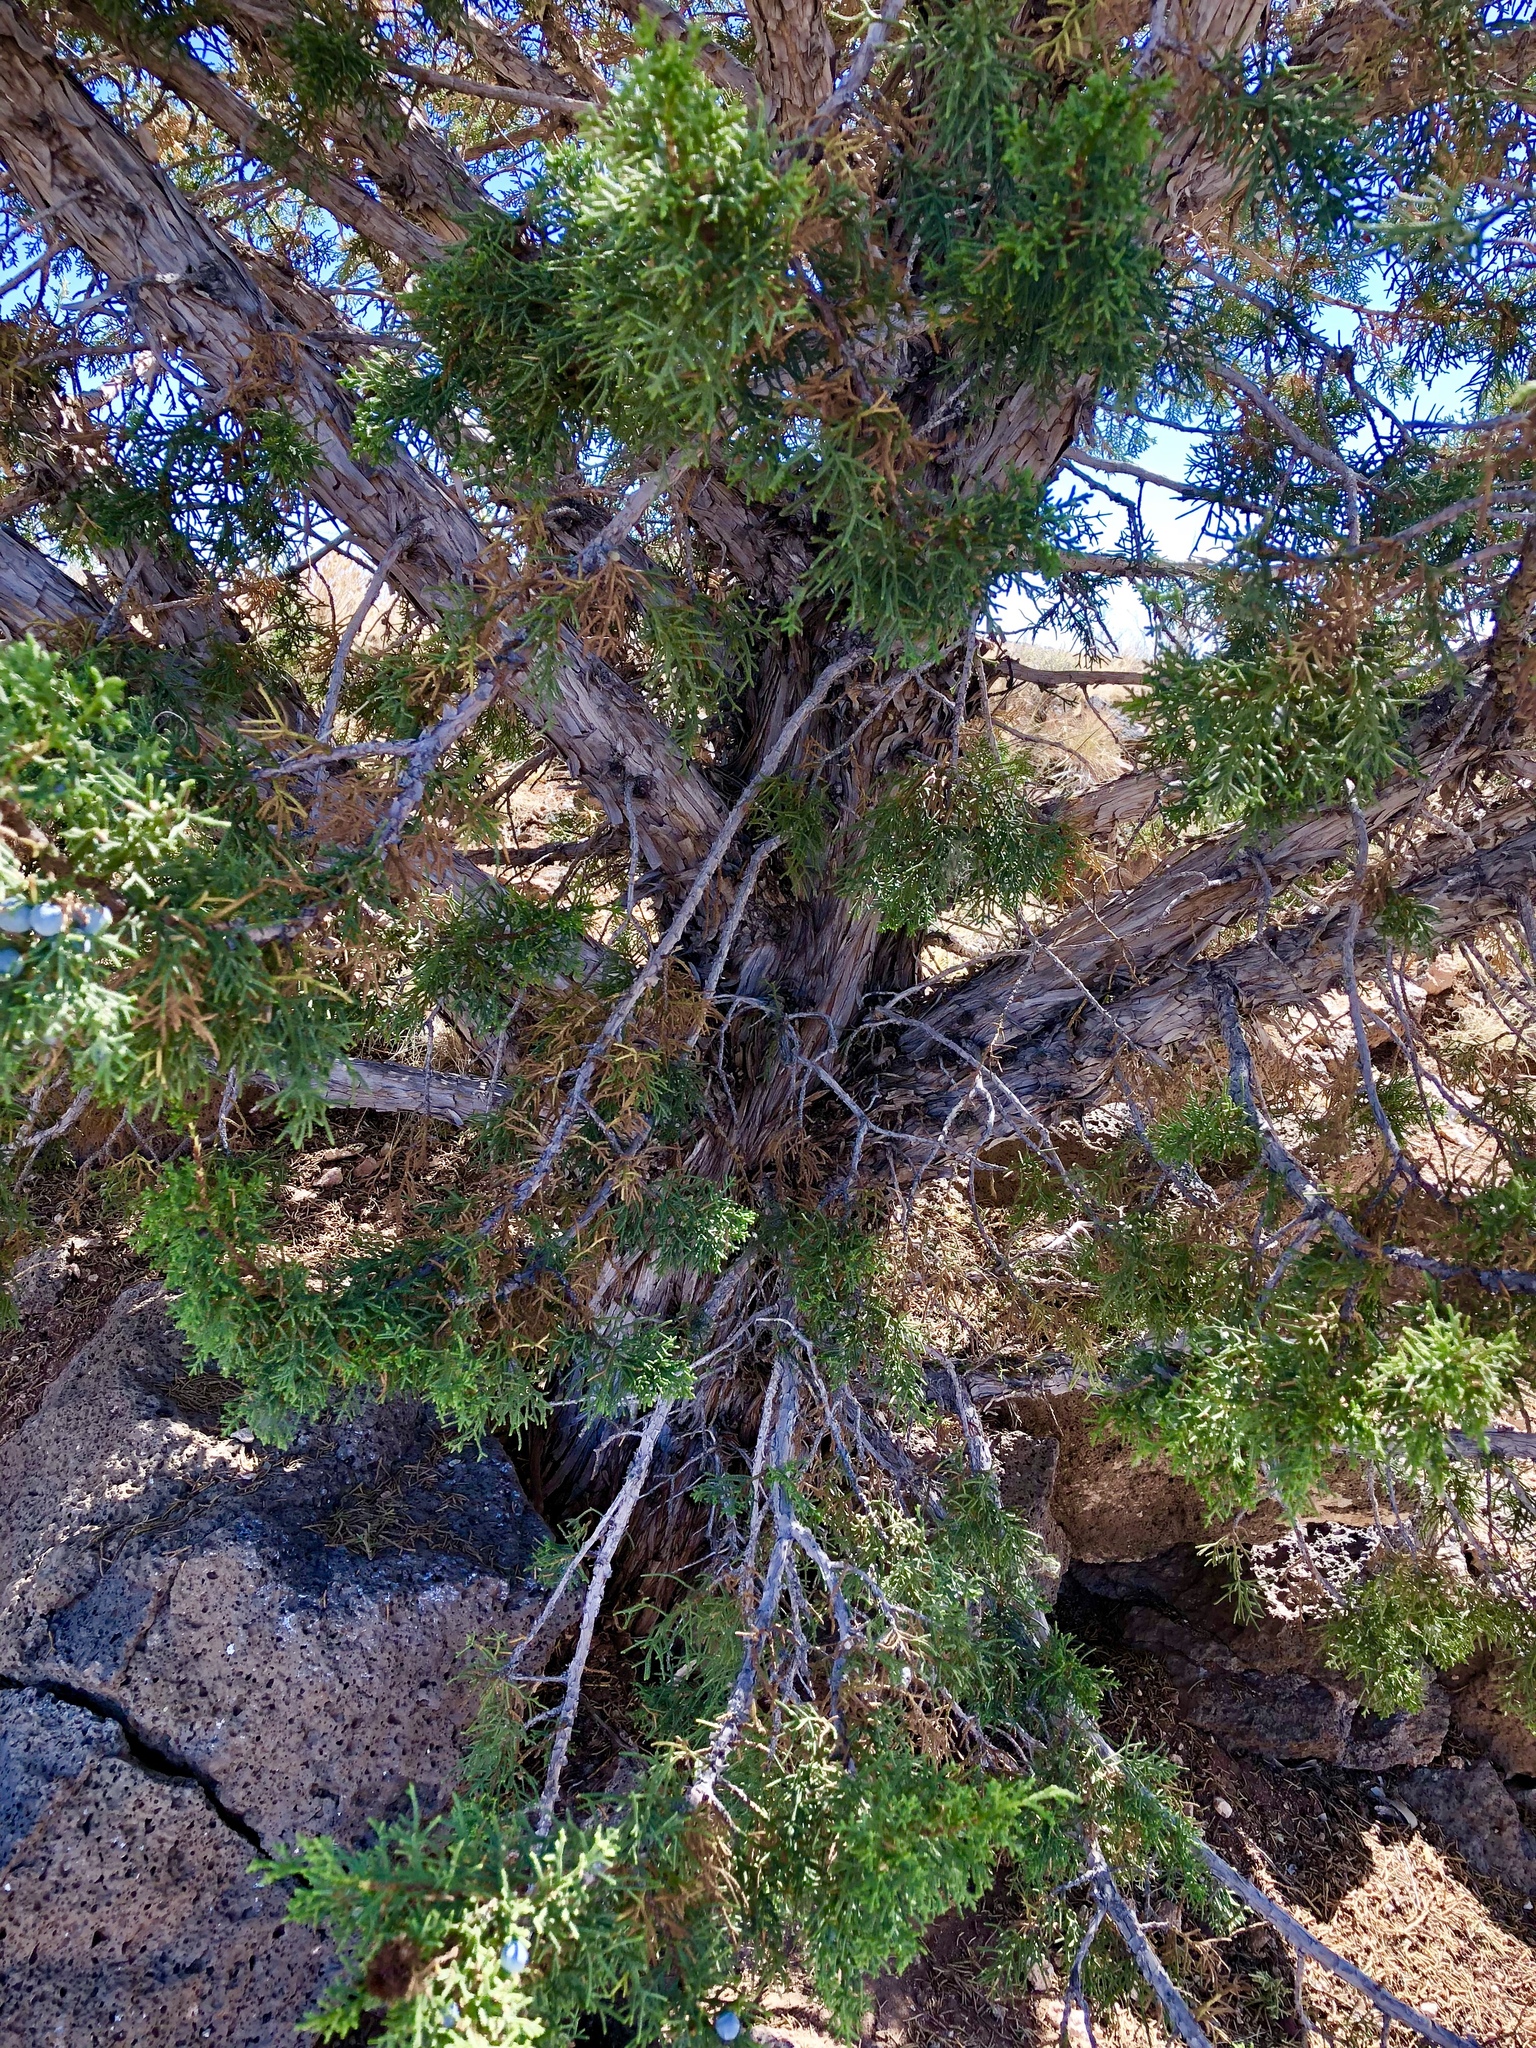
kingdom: Plantae
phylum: Tracheophyta
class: Pinopsida
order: Pinales
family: Cupressaceae
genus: Juniperus
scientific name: Juniperus osteosperma
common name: Utah juniper
